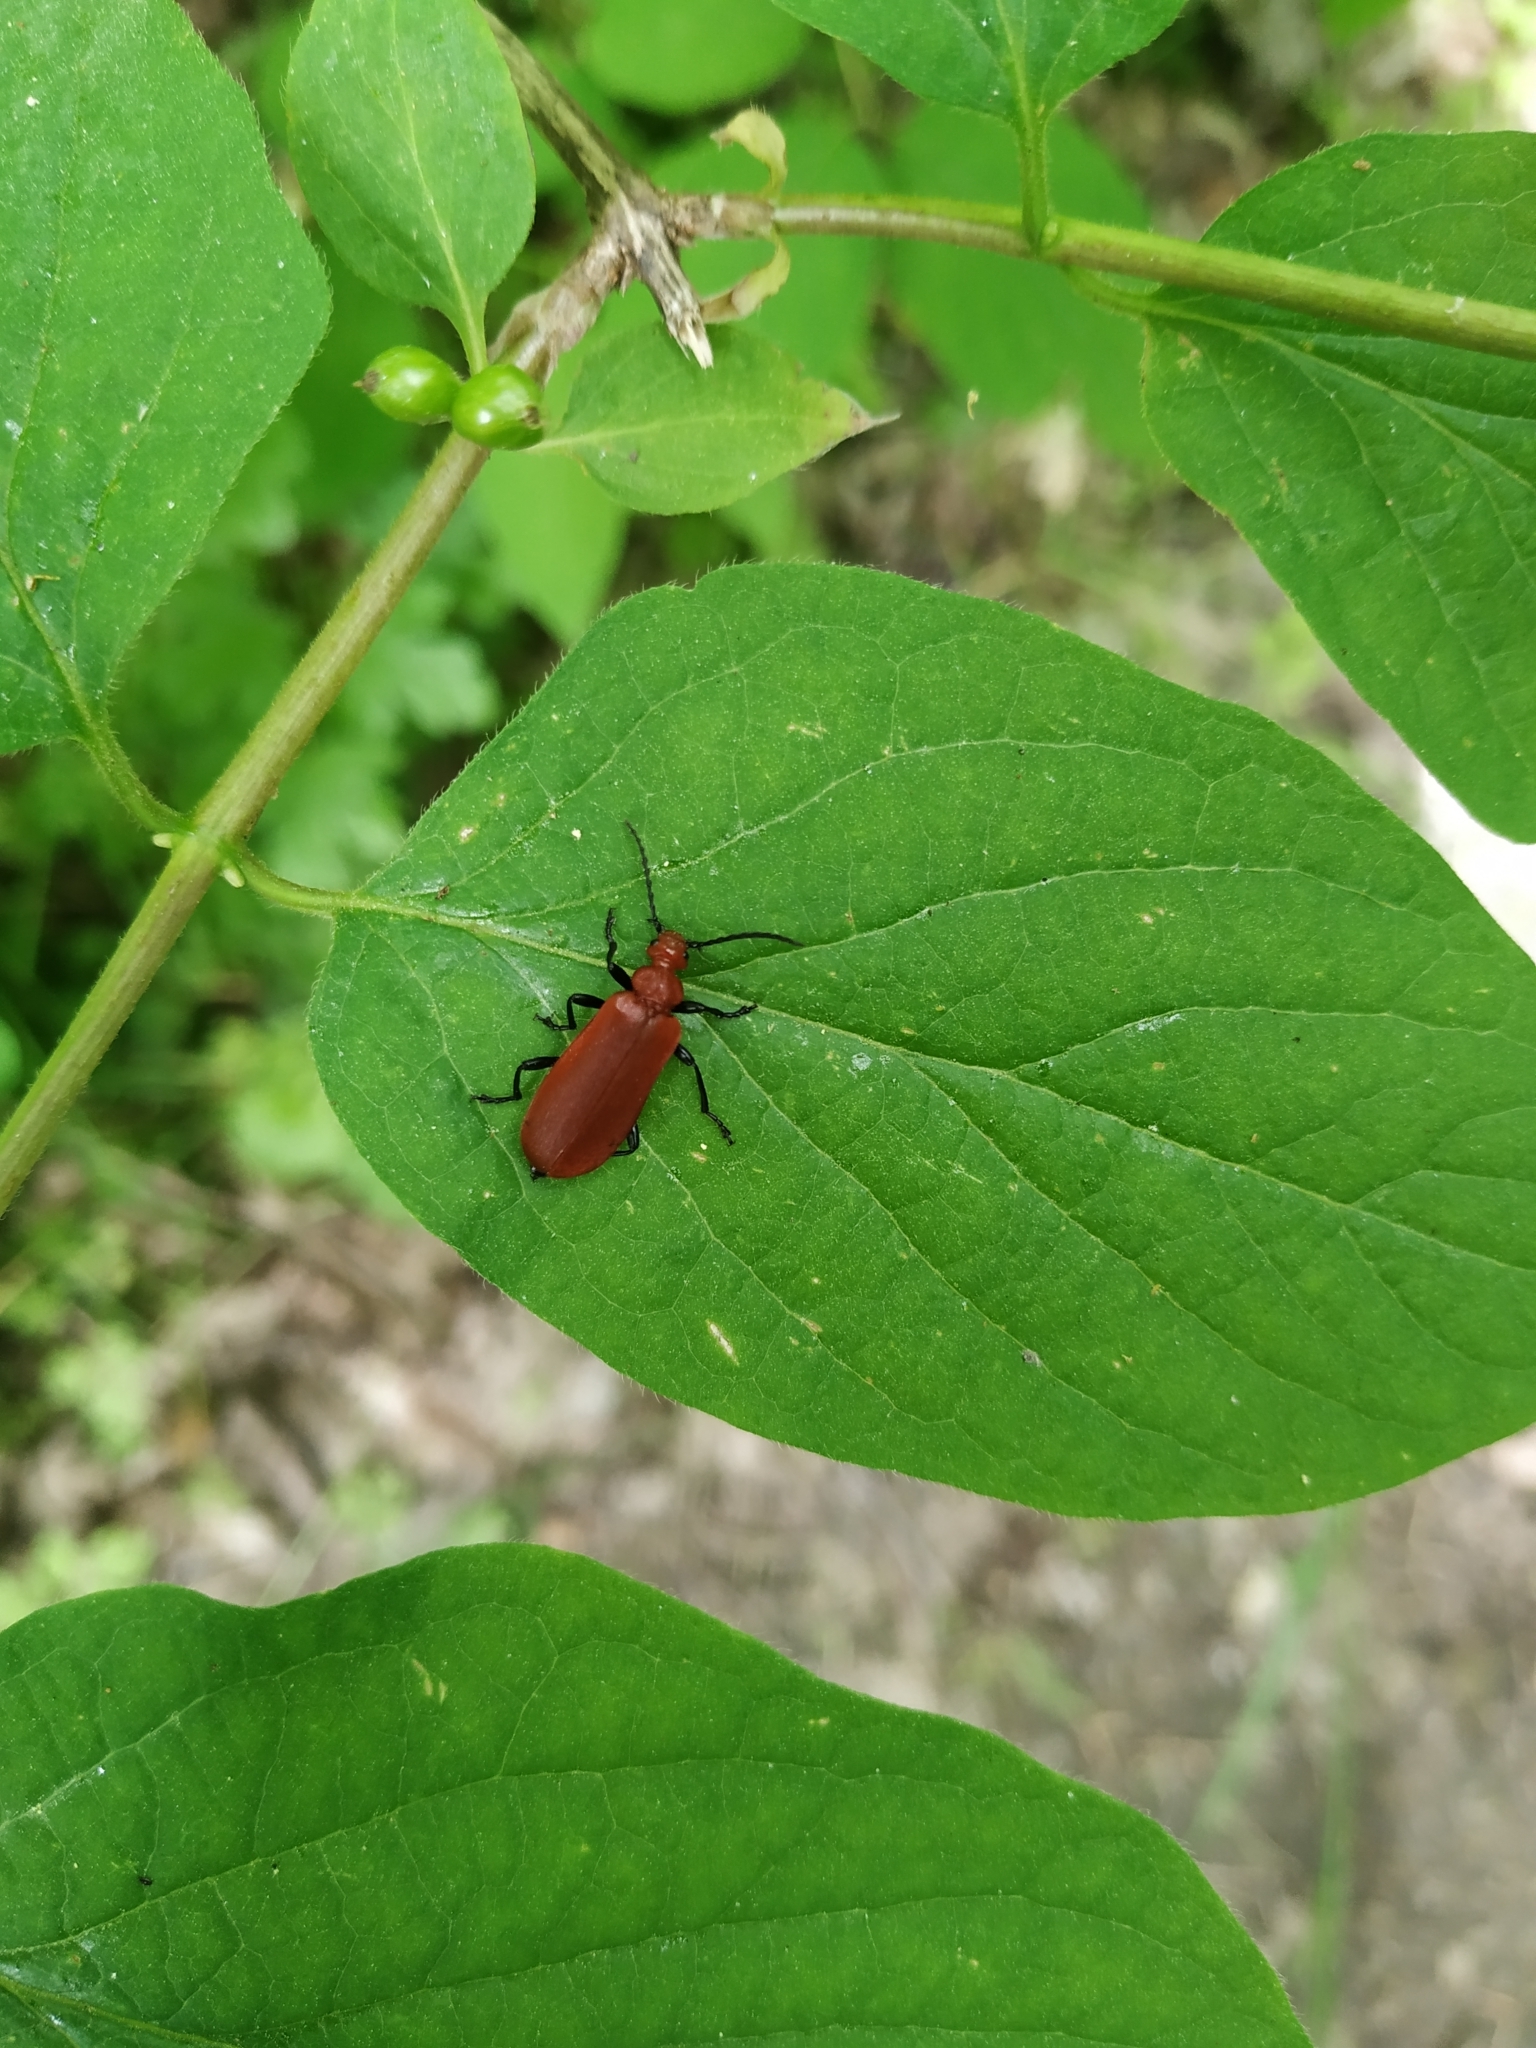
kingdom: Animalia
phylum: Arthropoda
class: Insecta
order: Coleoptera
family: Pyrochroidae
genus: Pyrochroa
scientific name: Pyrochroa serraticornis
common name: Red-headed cardinal beetle
